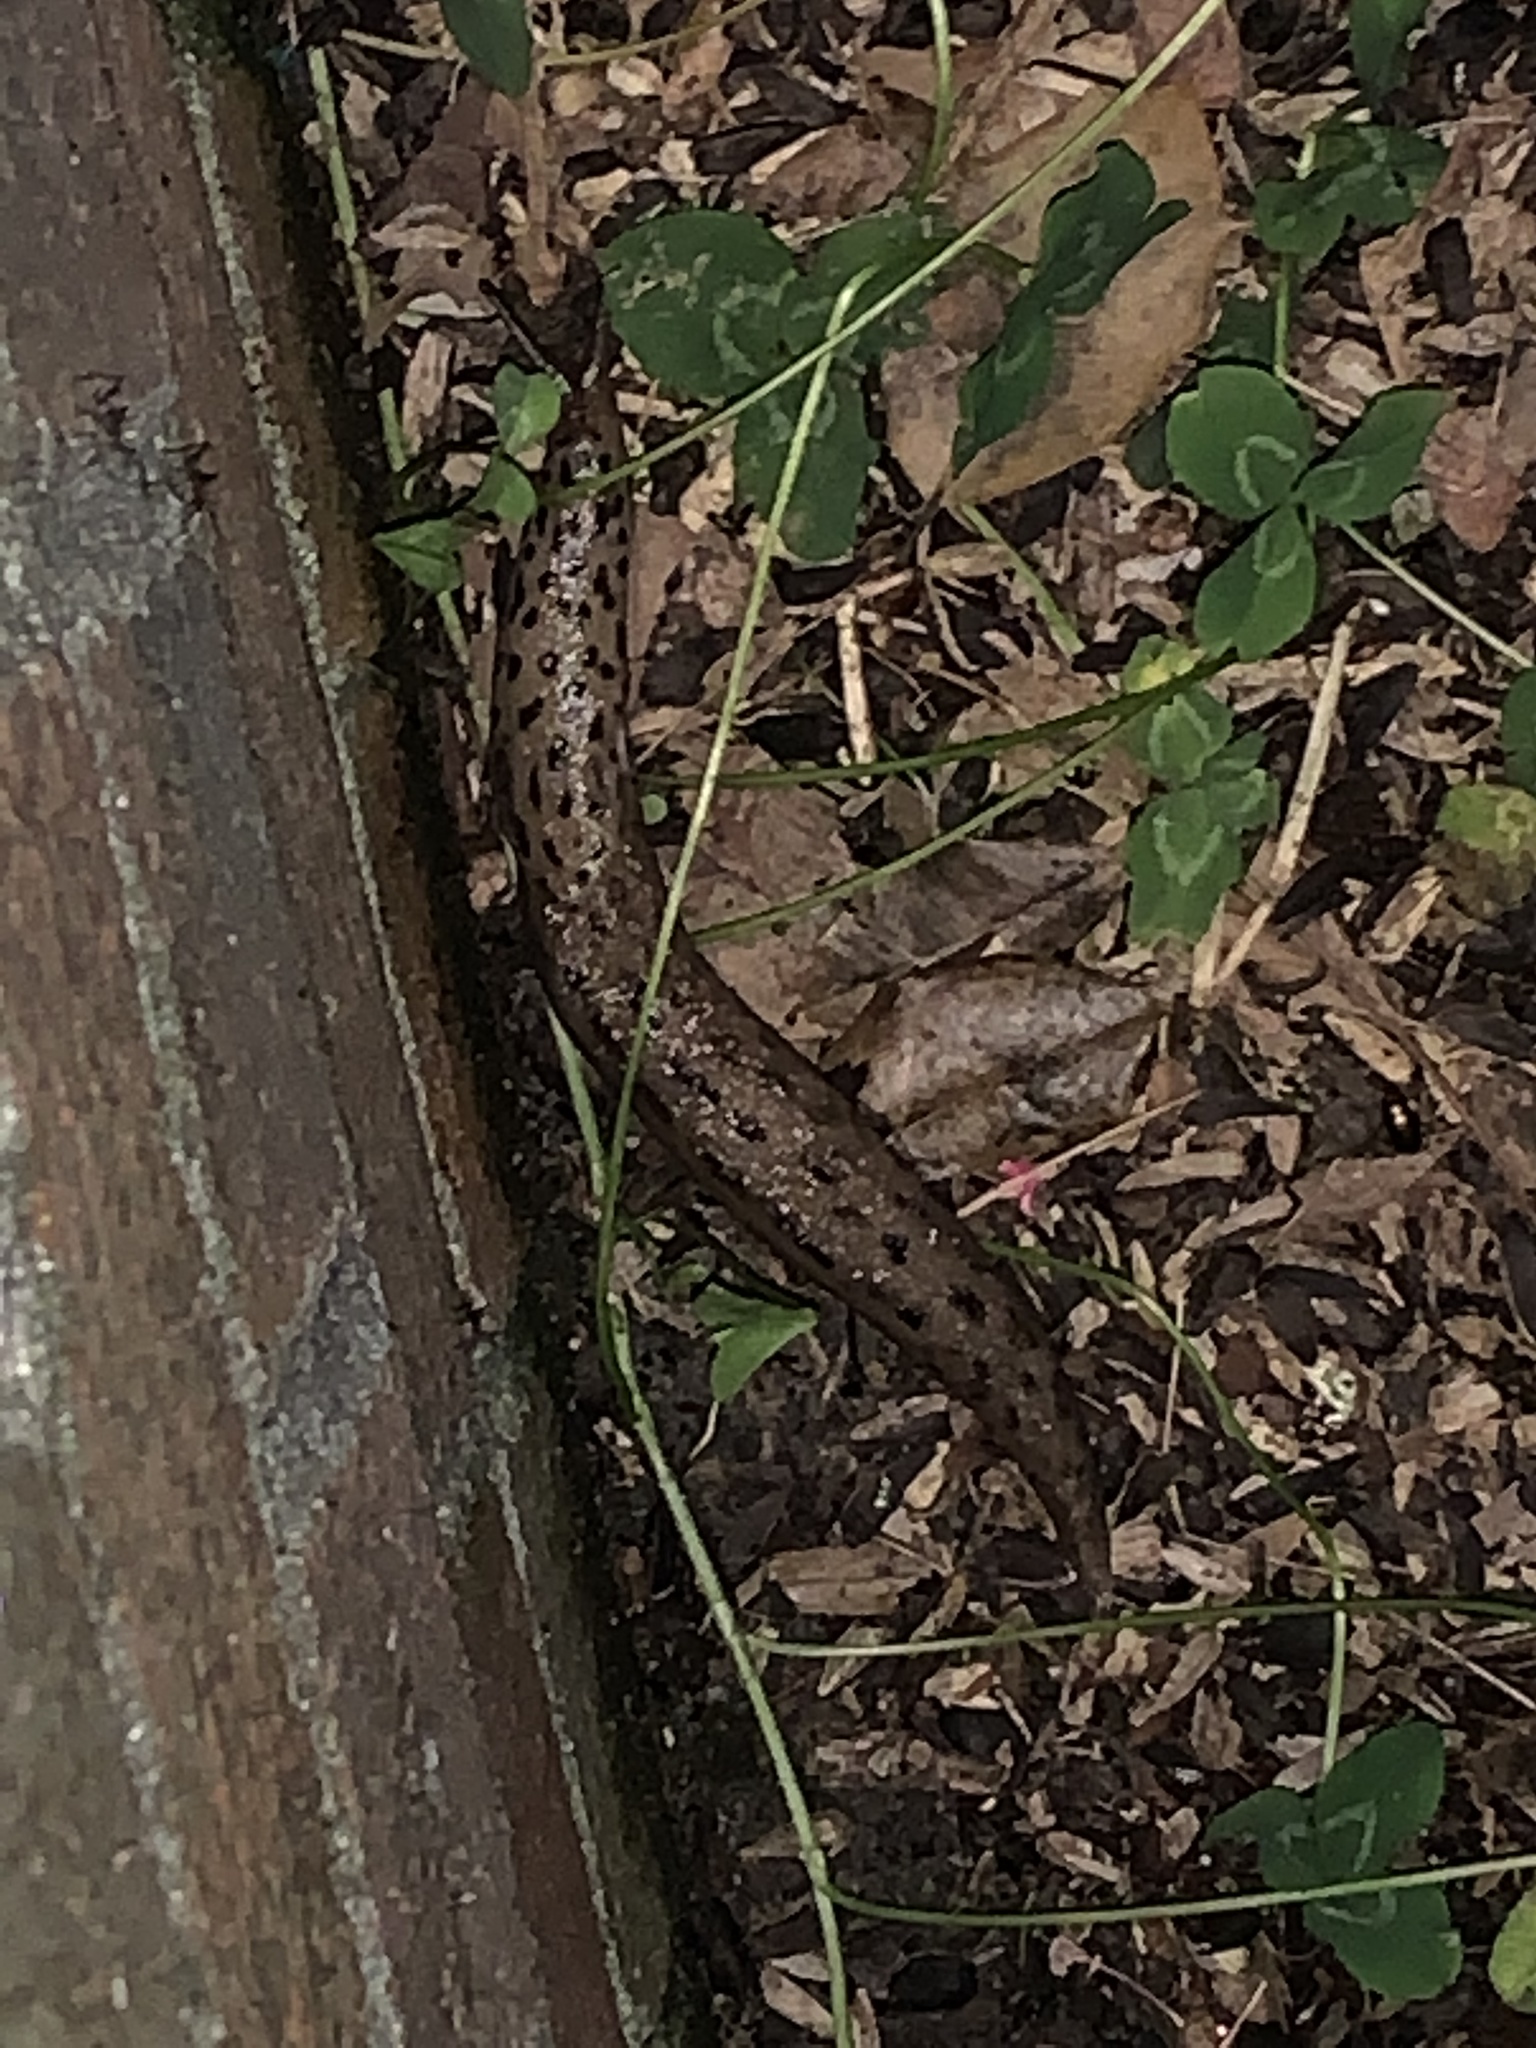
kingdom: Animalia
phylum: Mollusca
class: Gastropoda
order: Stylommatophora
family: Limacidae
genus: Limax
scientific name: Limax maximus
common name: Great grey slug
